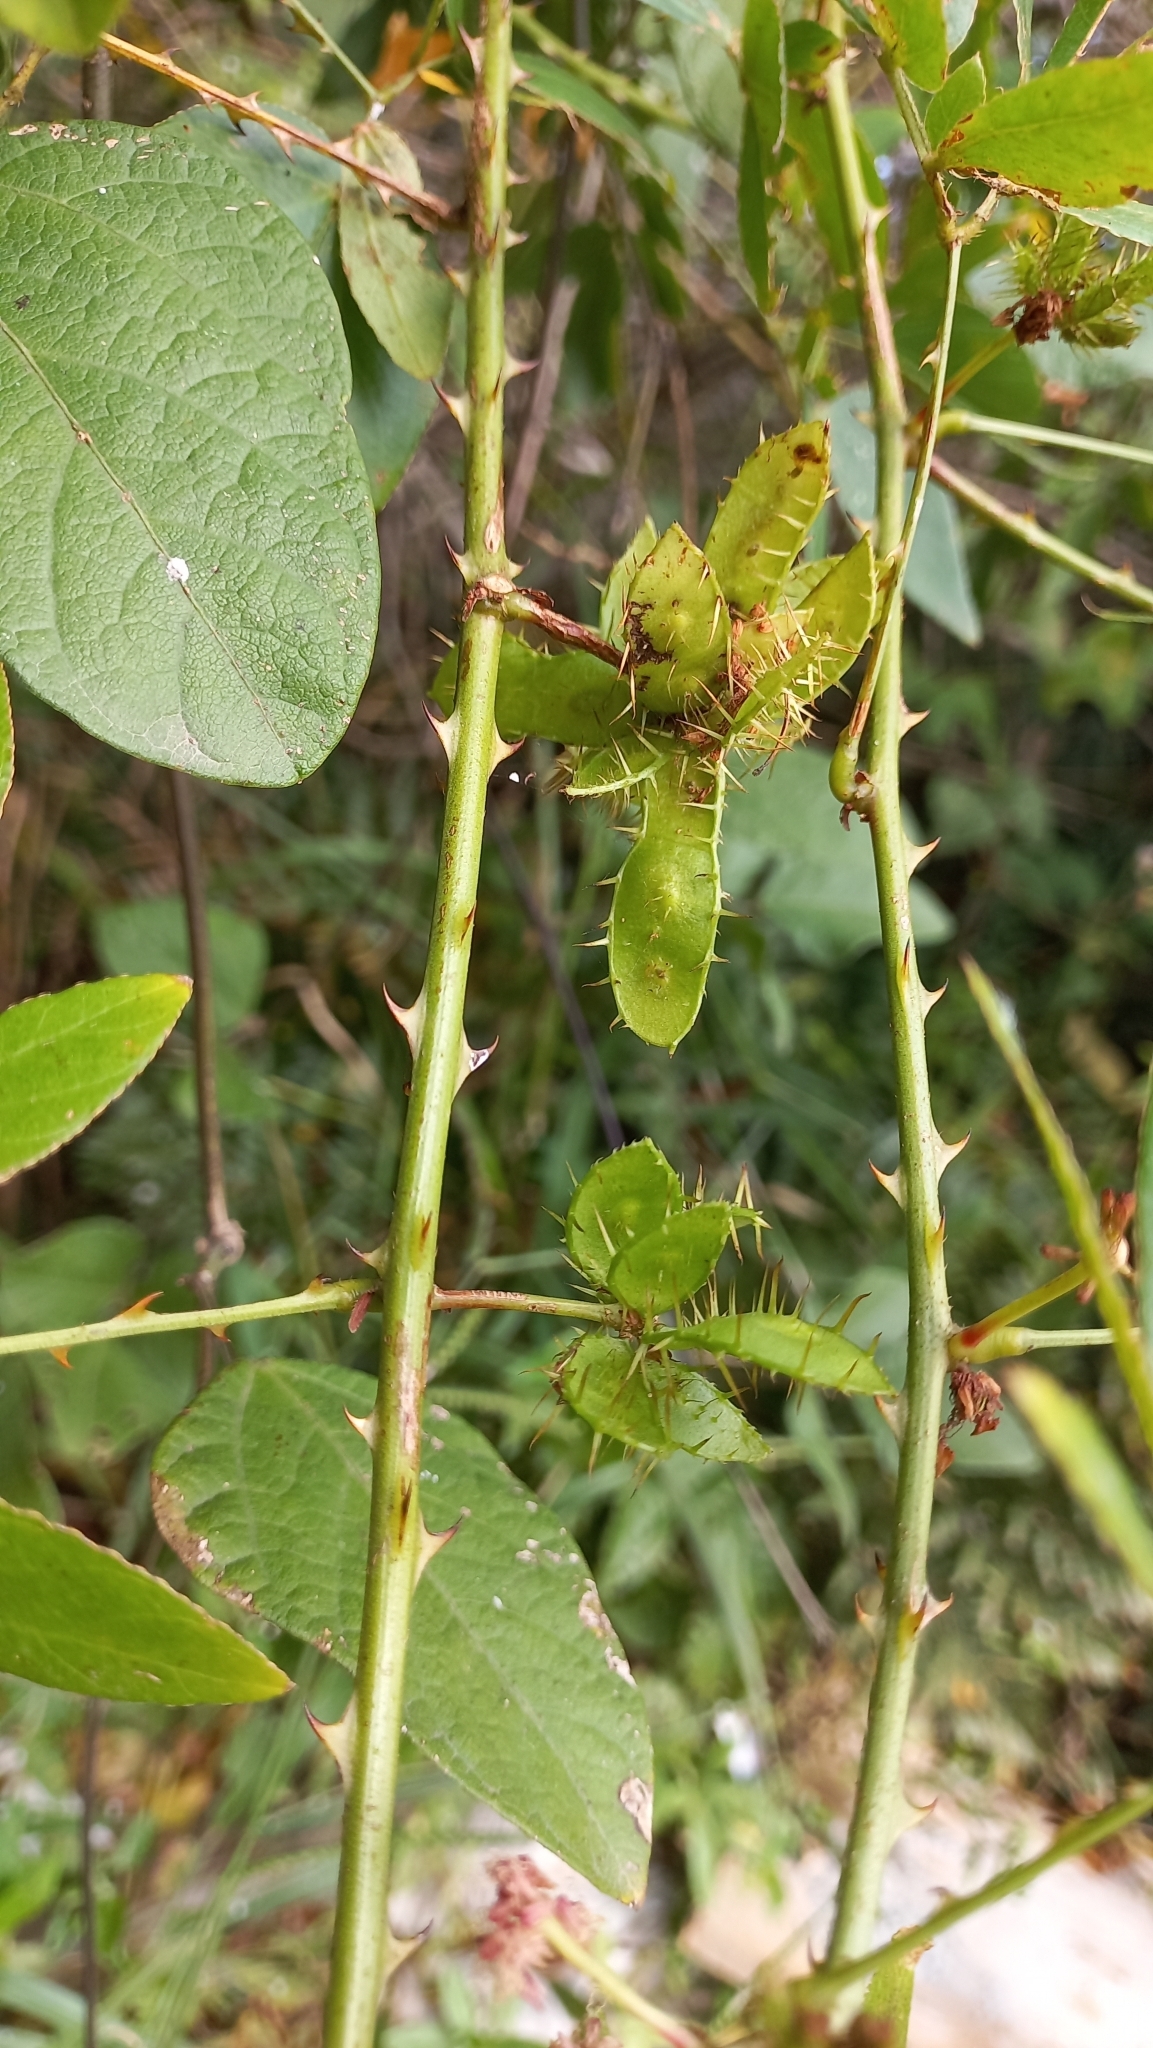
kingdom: Plantae
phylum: Tracheophyta
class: Magnoliopsida
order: Fabales
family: Fabaceae
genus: Mimosa
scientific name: Mimosa velloziana
